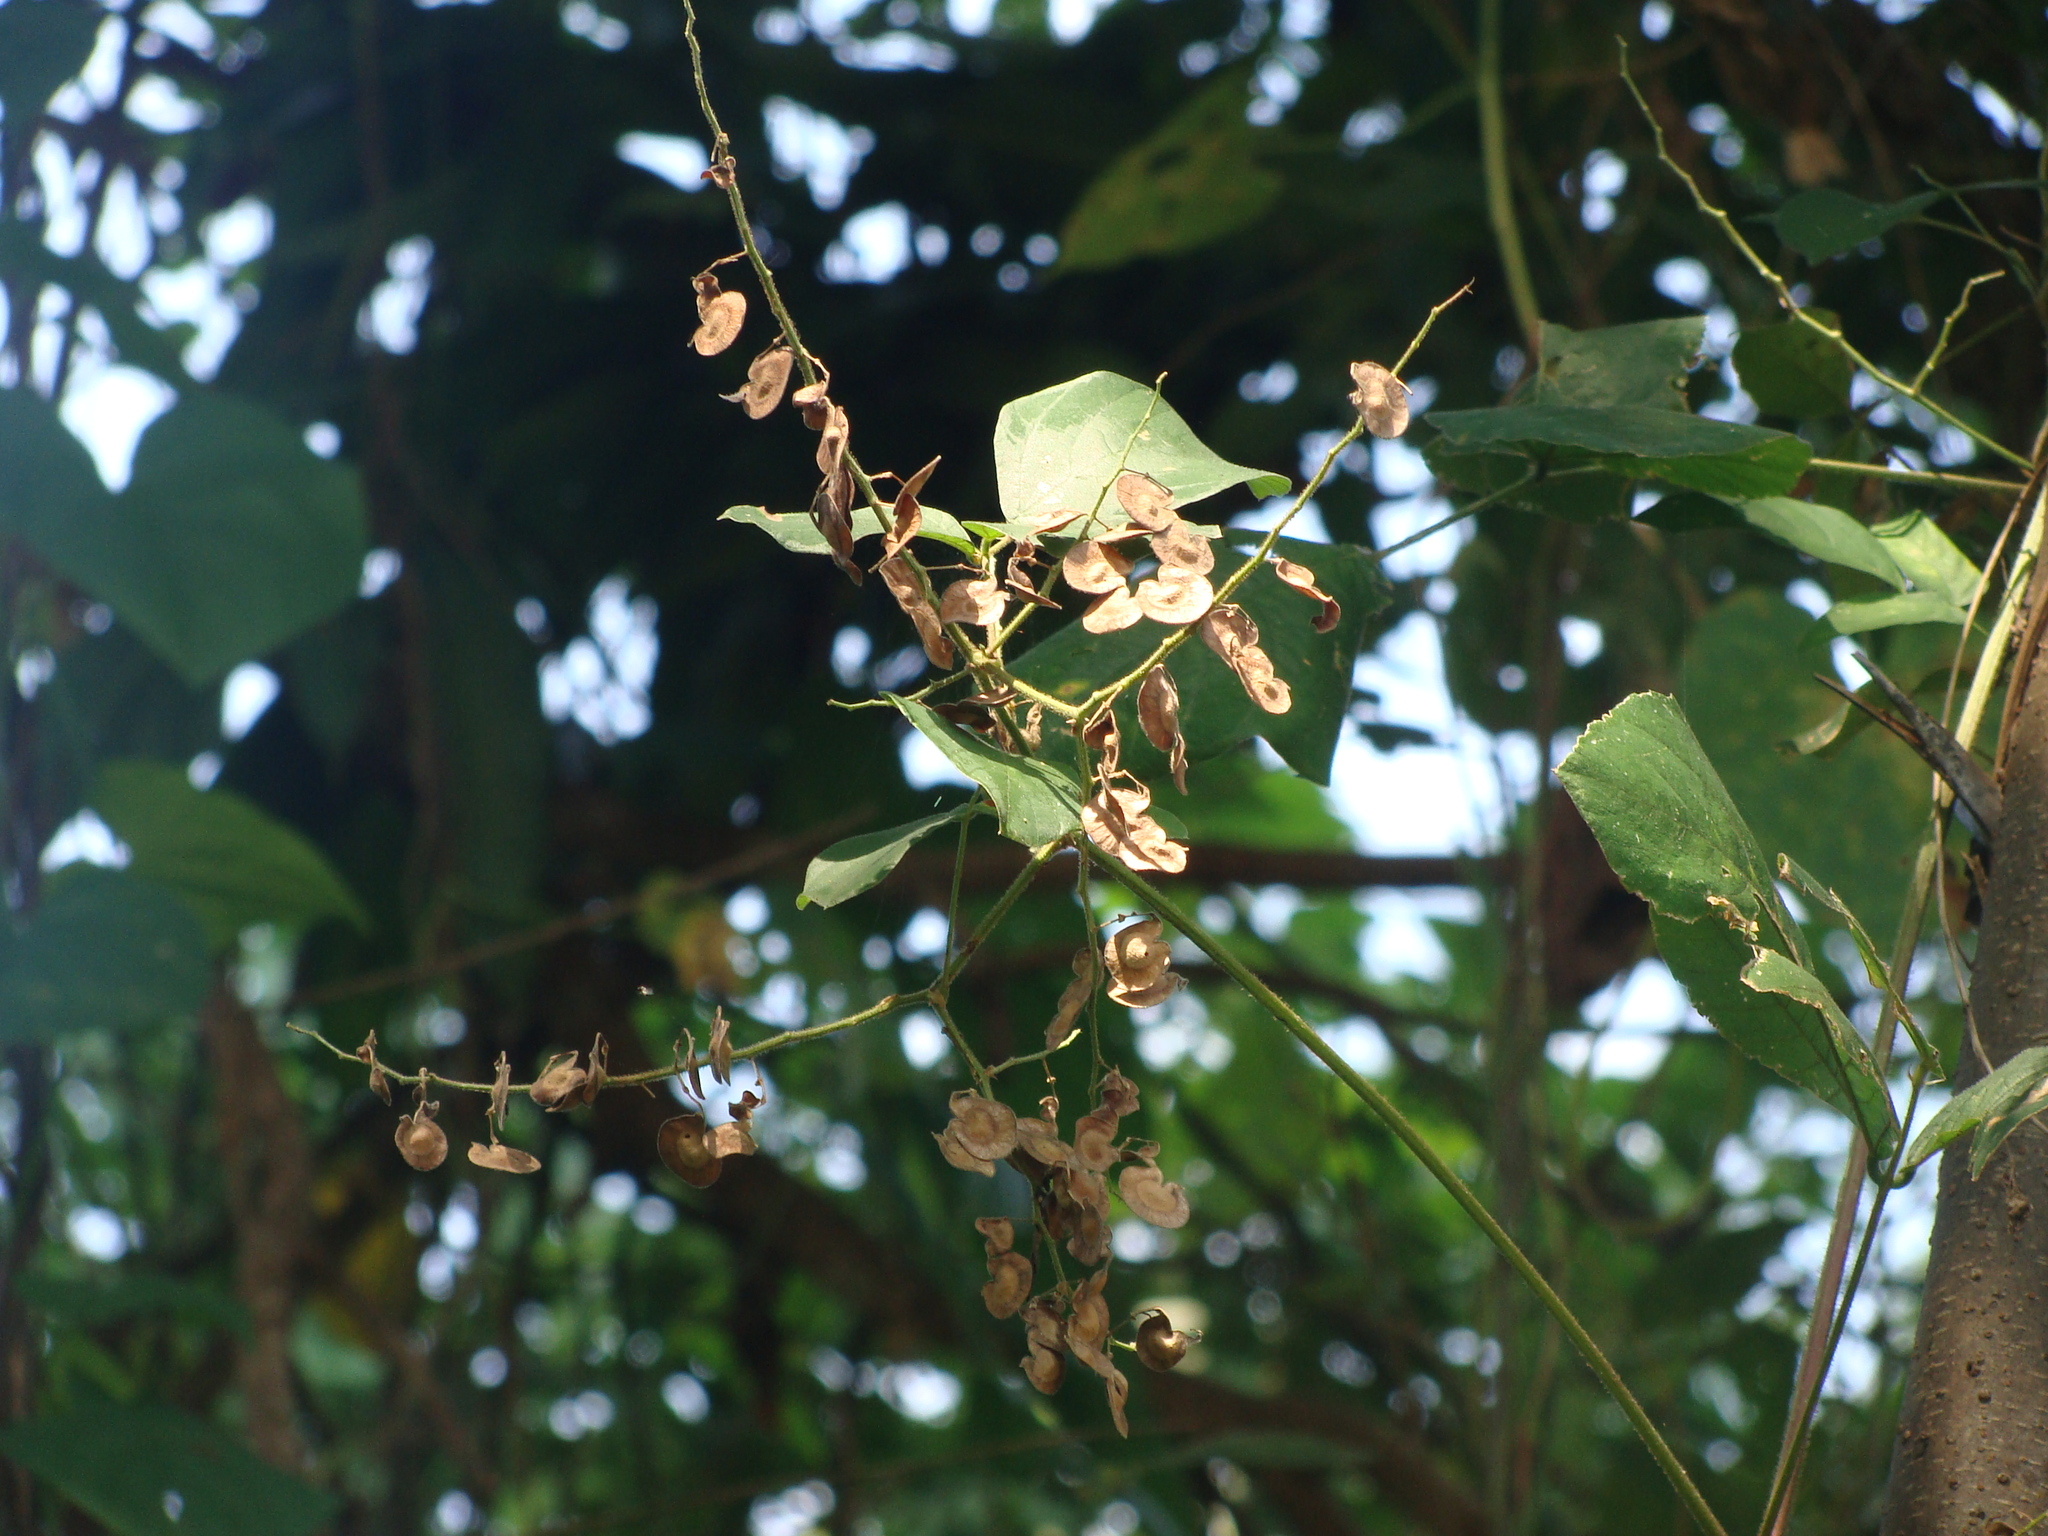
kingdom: Plantae
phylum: Tracheophyta
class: Magnoliopsida
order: Fabales
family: Fabaceae
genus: Desmodium
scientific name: Desmodium infractum
